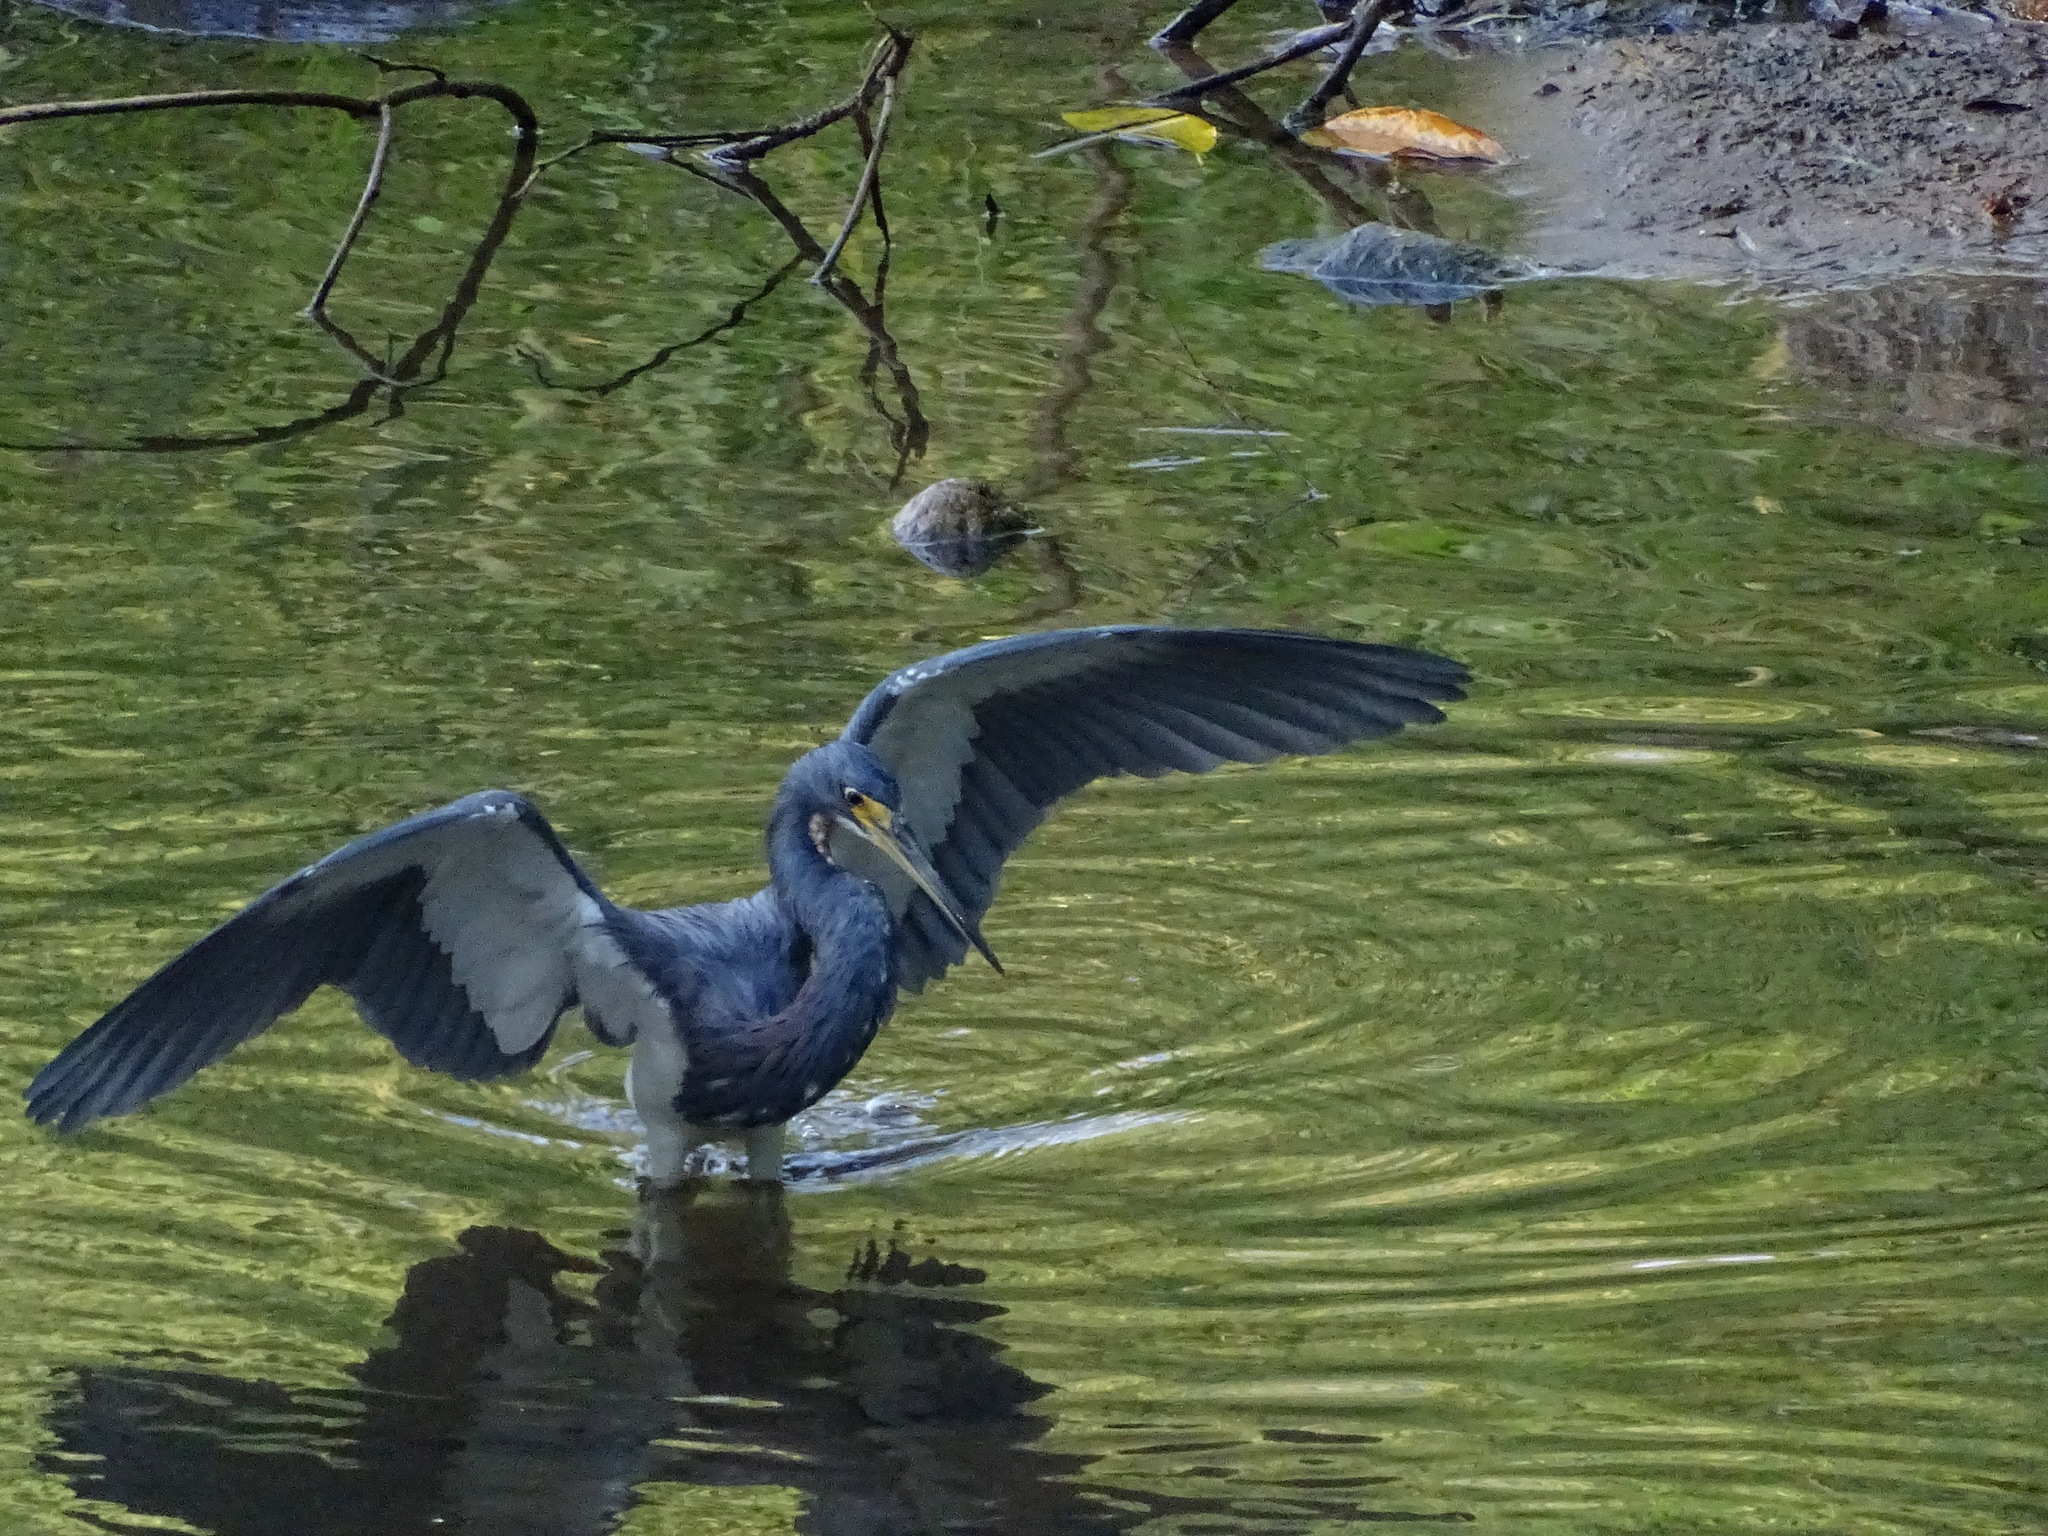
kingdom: Animalia
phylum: Chordata
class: Aves
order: Pelecaniformes
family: Ardeidae
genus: Egretta
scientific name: Egretta tricolor
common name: Tricolored heron
